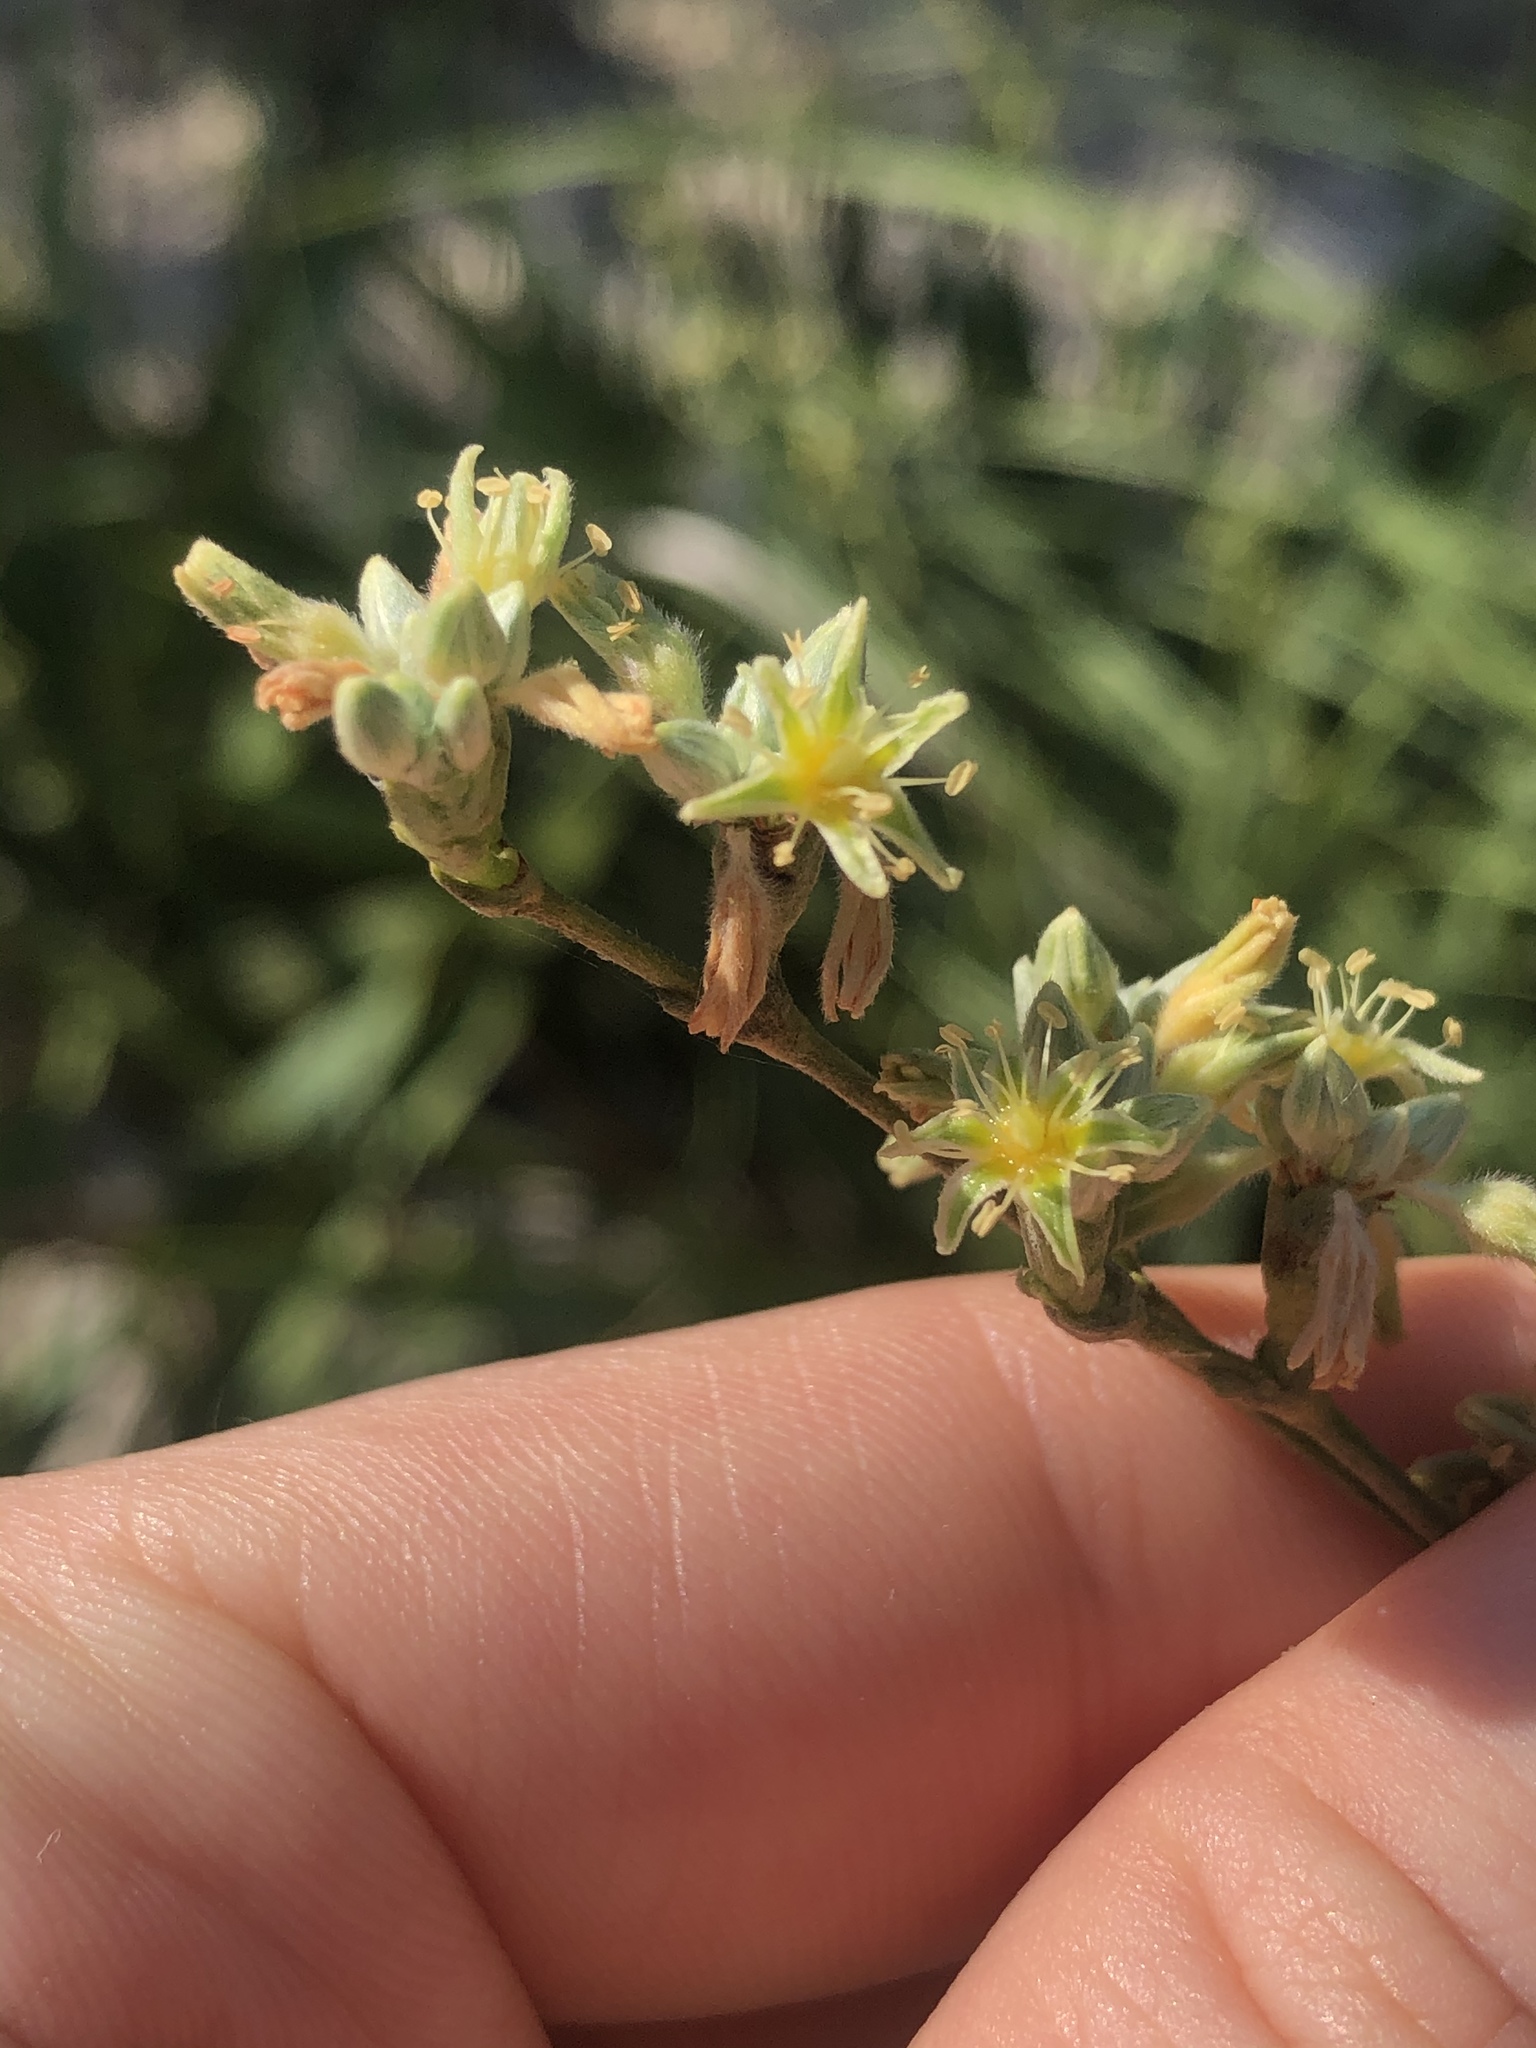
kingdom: Plantae
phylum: Tracheophyta
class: Magnoliopsida
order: Caryophyllales
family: Polygonaceae
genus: Eriogonum
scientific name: Eriogonum longifolium
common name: Longleaf wild buckwheat
